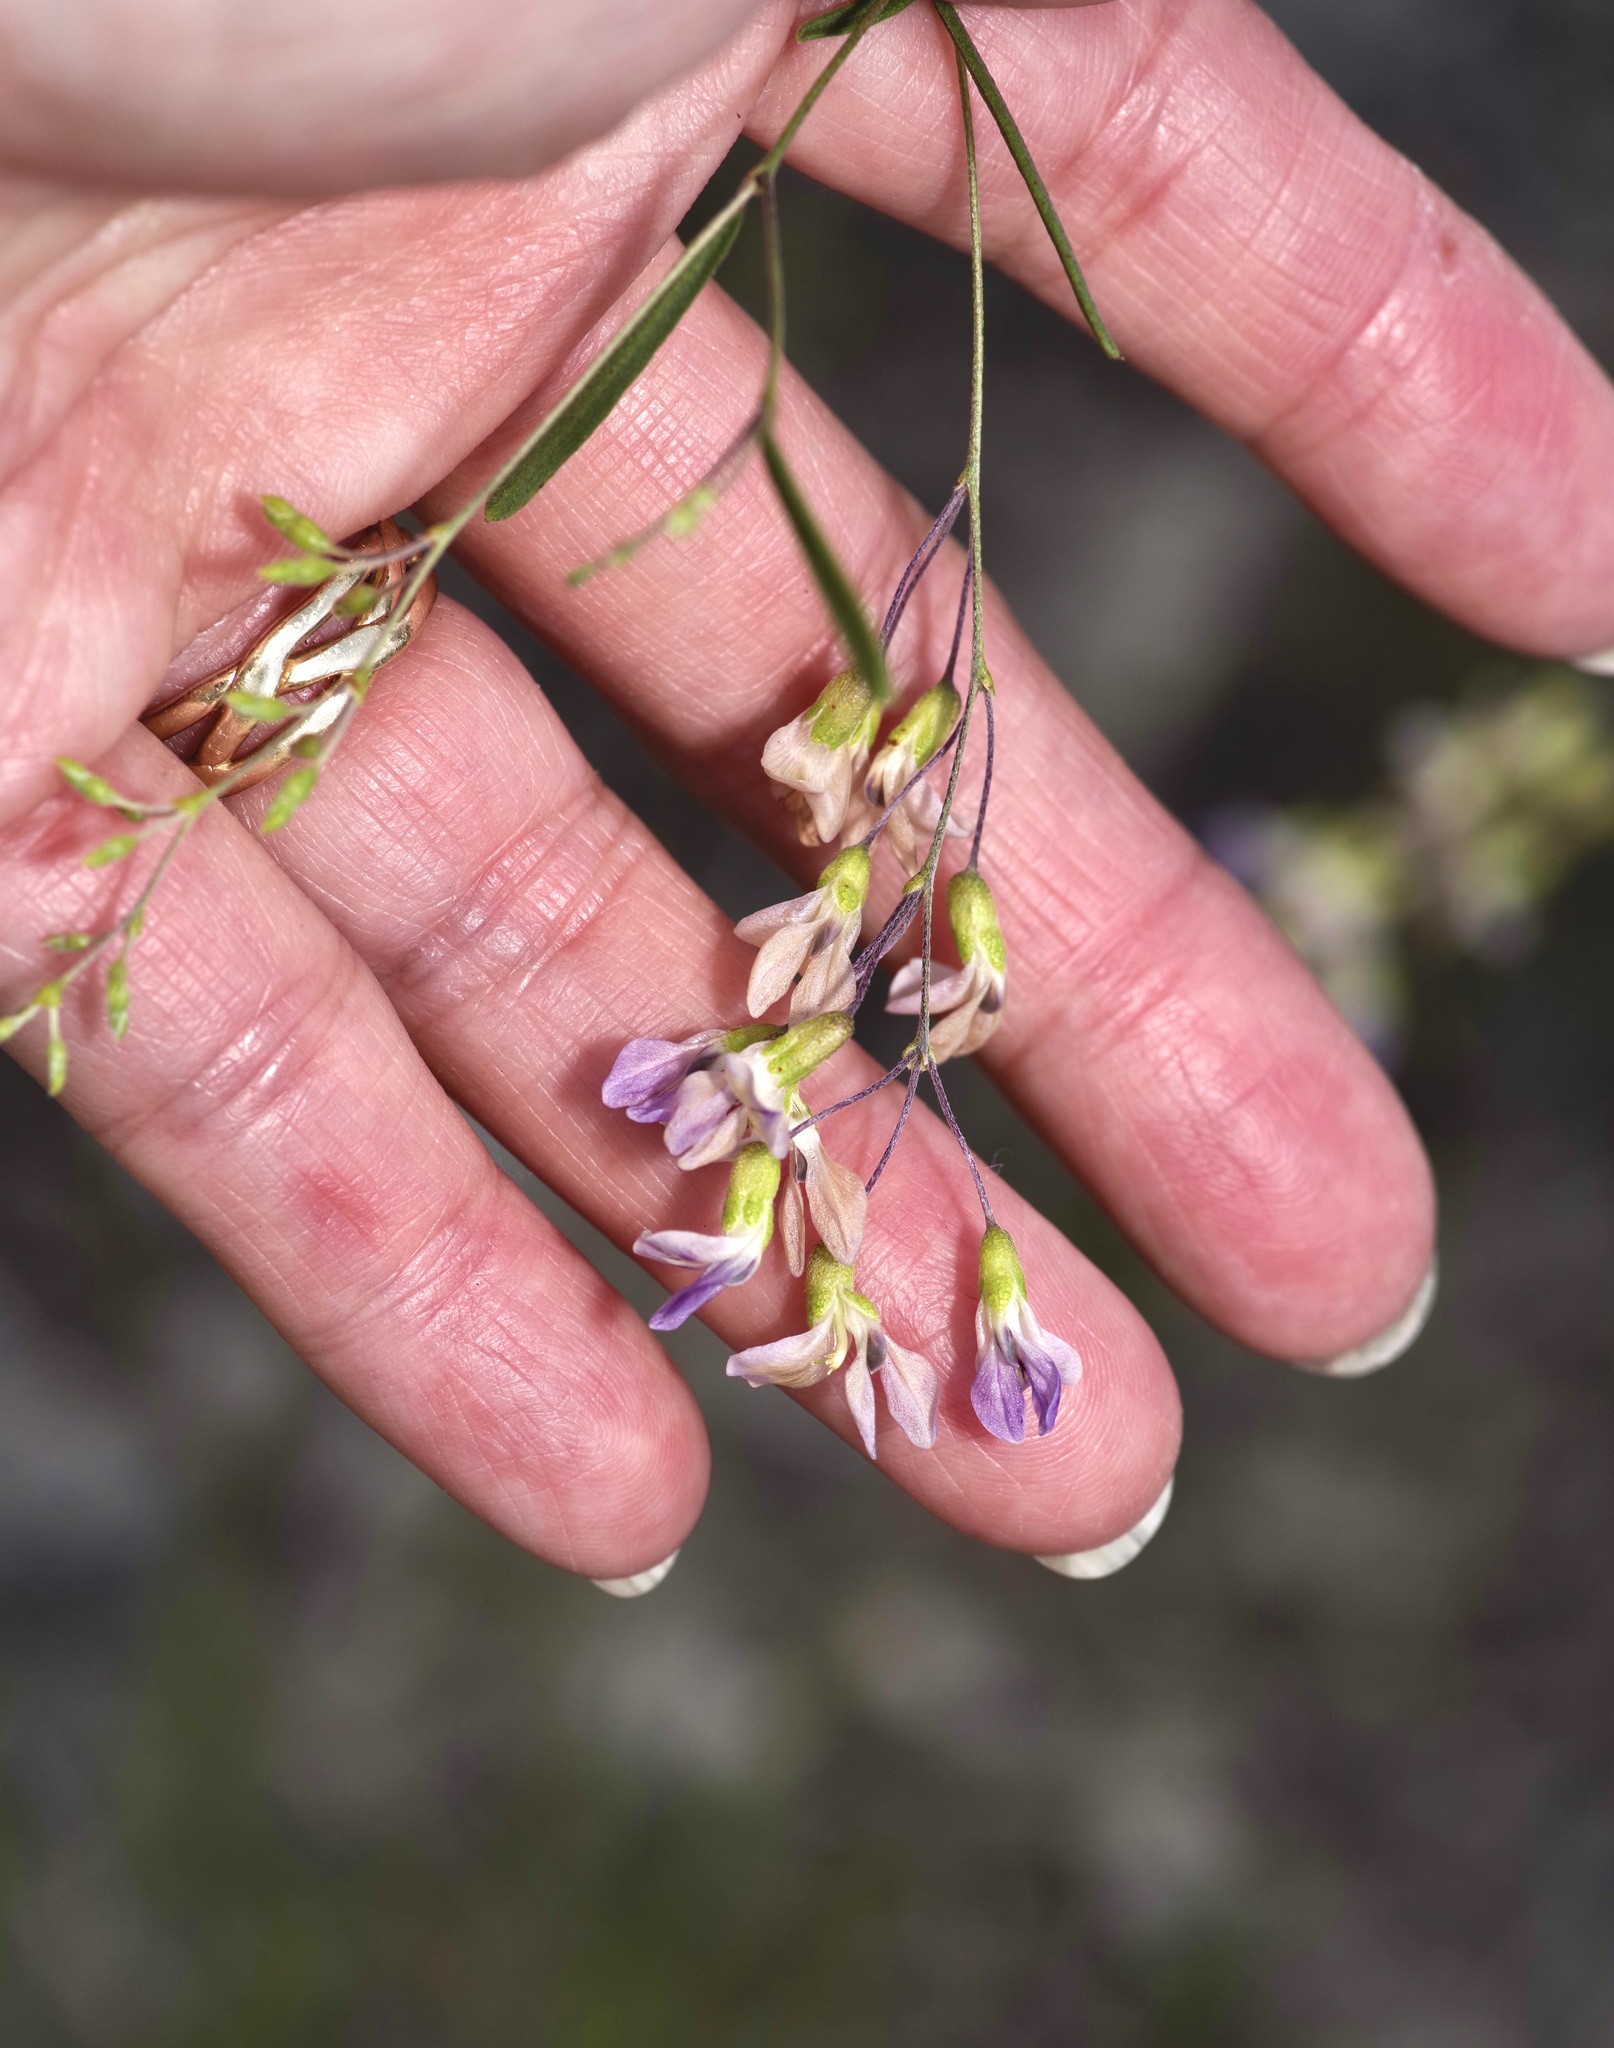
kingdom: Plantae
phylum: Tracheophyta
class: Magnoliopsida
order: Fabales
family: Fabaceae
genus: Pediomelum
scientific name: Pediomelum linearifolium
